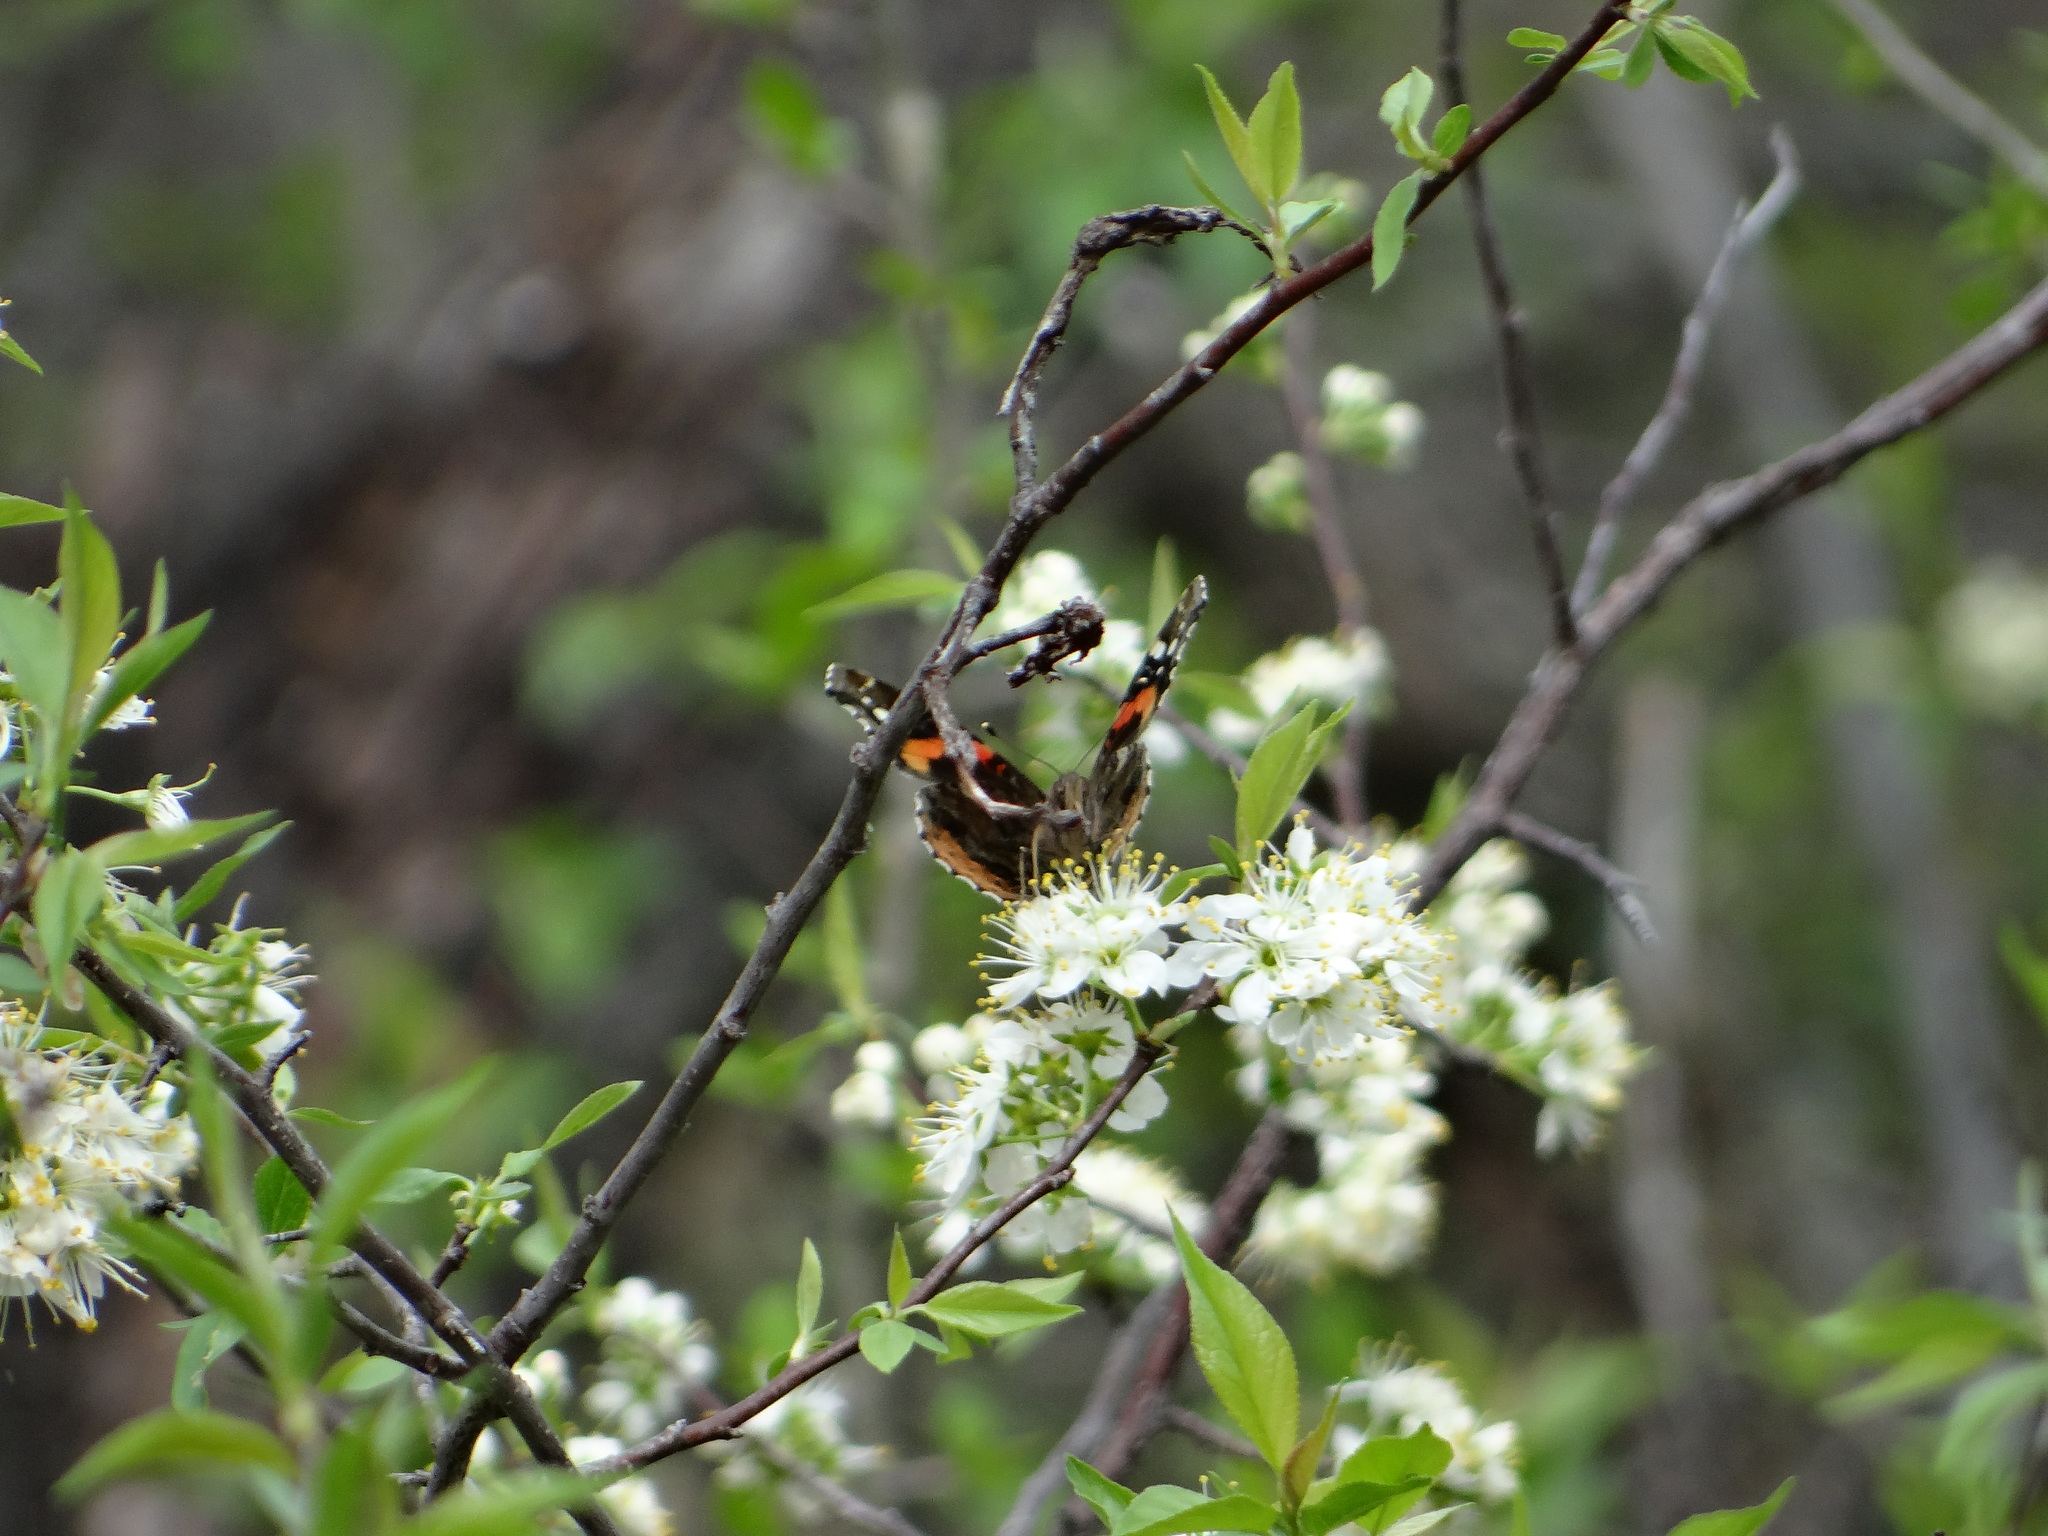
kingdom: Animalia
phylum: Arthropoda
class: Insecta
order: Lepidoptera
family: Nymphalidae
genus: Vanessa
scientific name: Vanessa atalanta
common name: Red admiral
